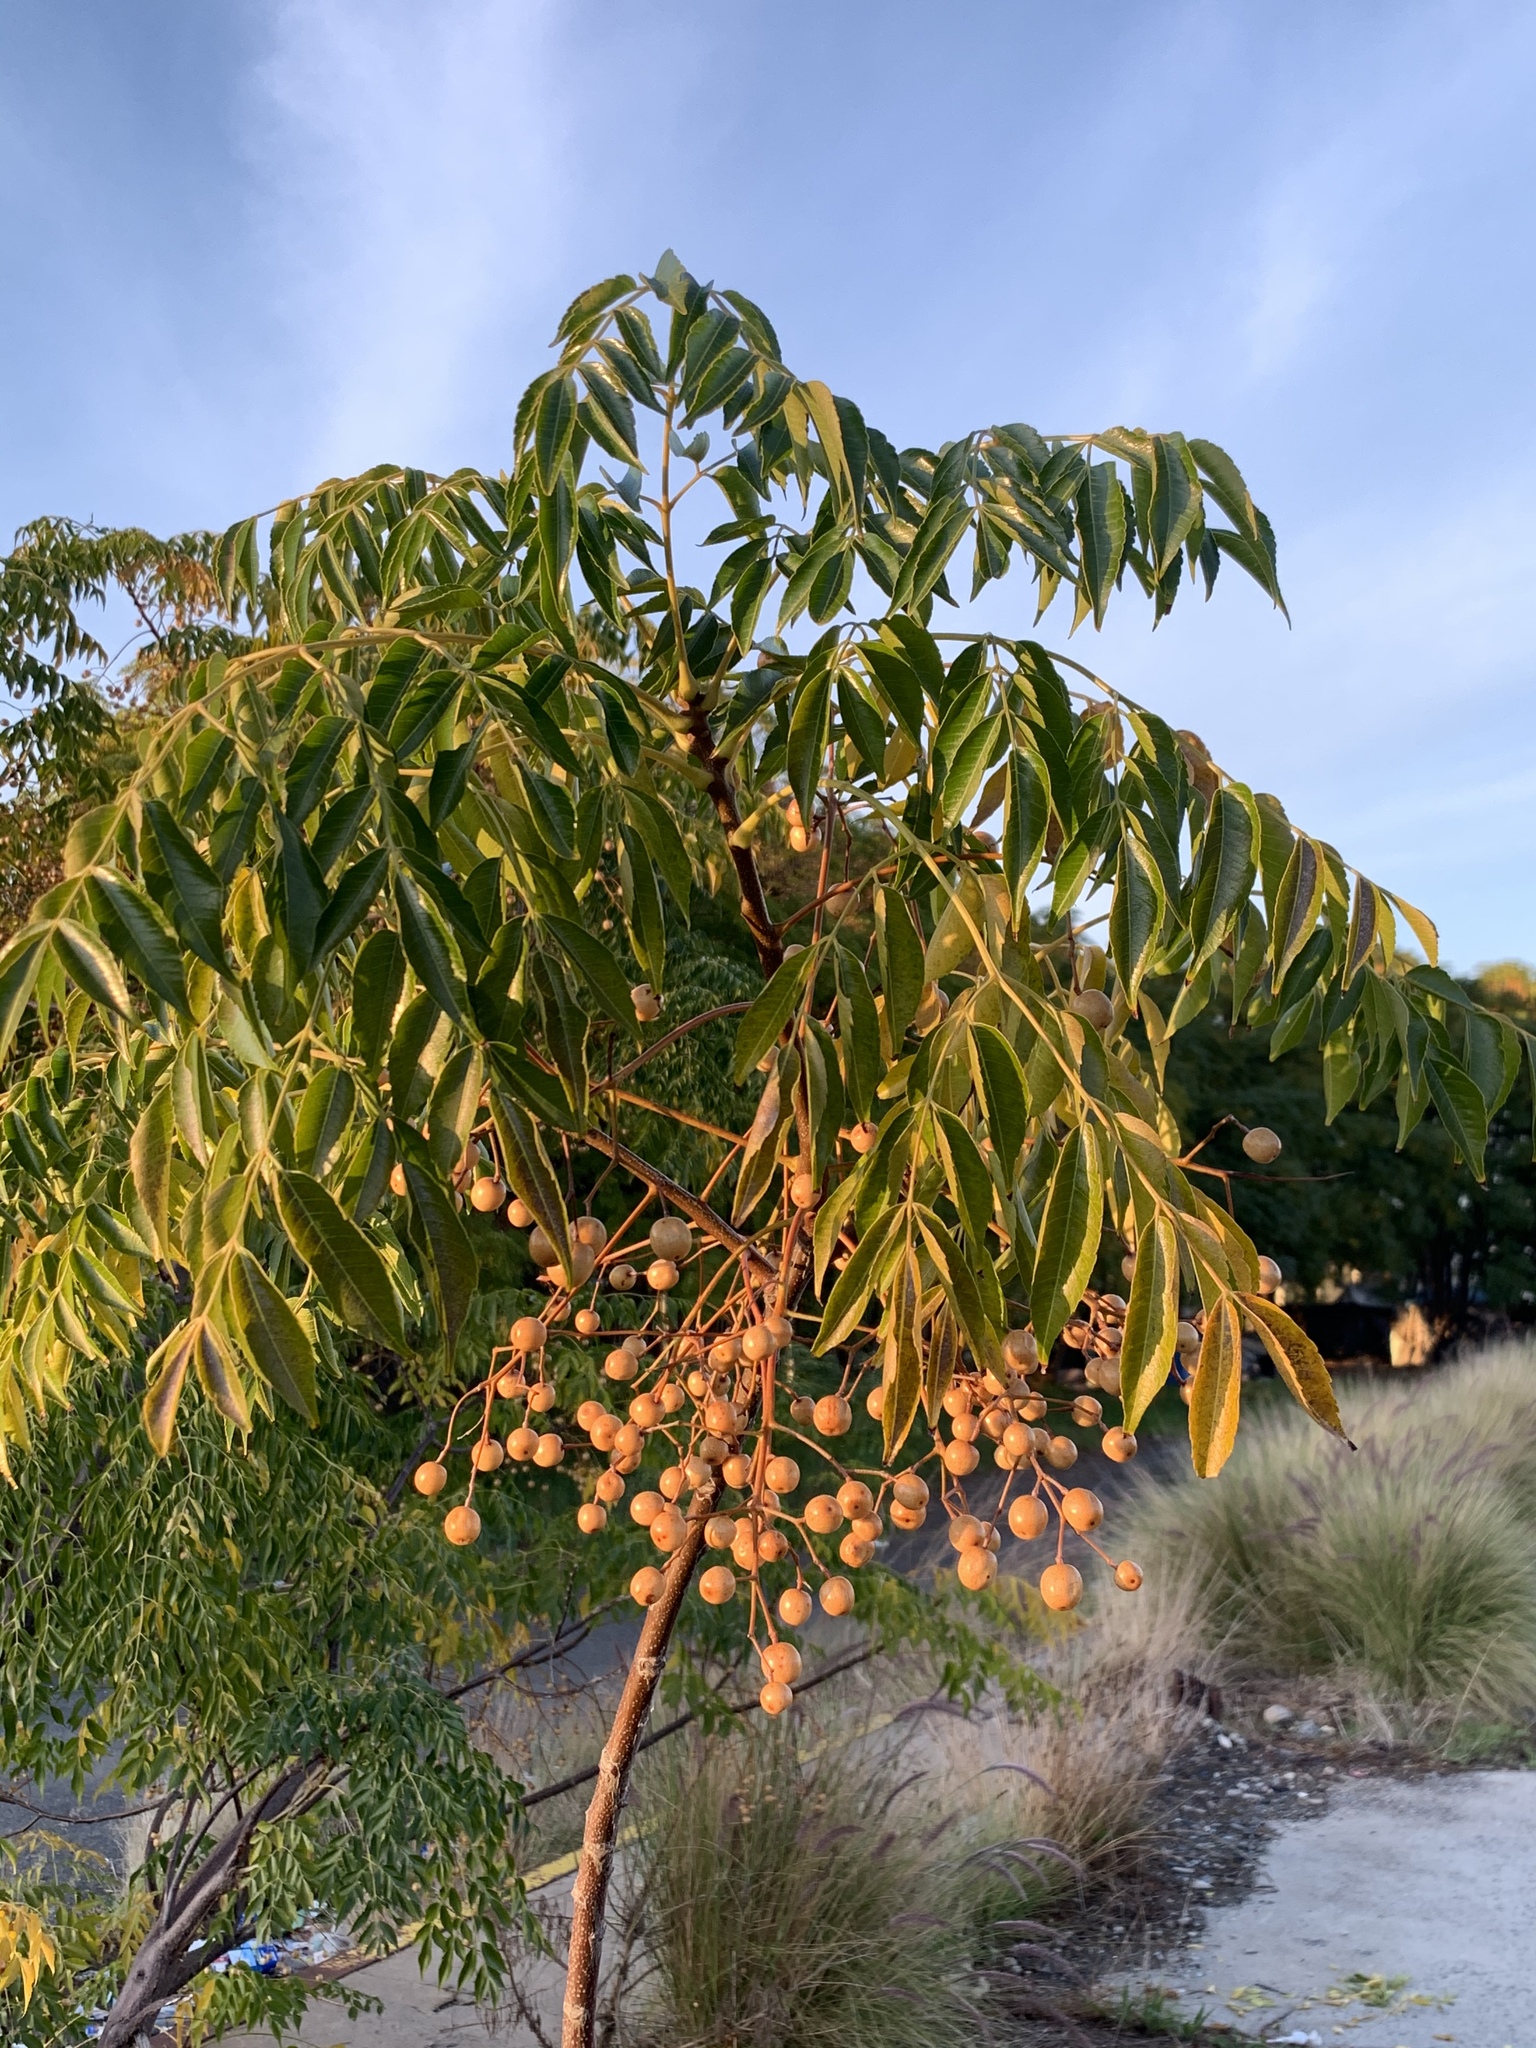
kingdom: Plantae
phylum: Tracheophyta
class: Magnoliopsida
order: Sapindales
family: Meliaceae
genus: Melia
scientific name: Melia azedarach
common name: Chinaberrytree
